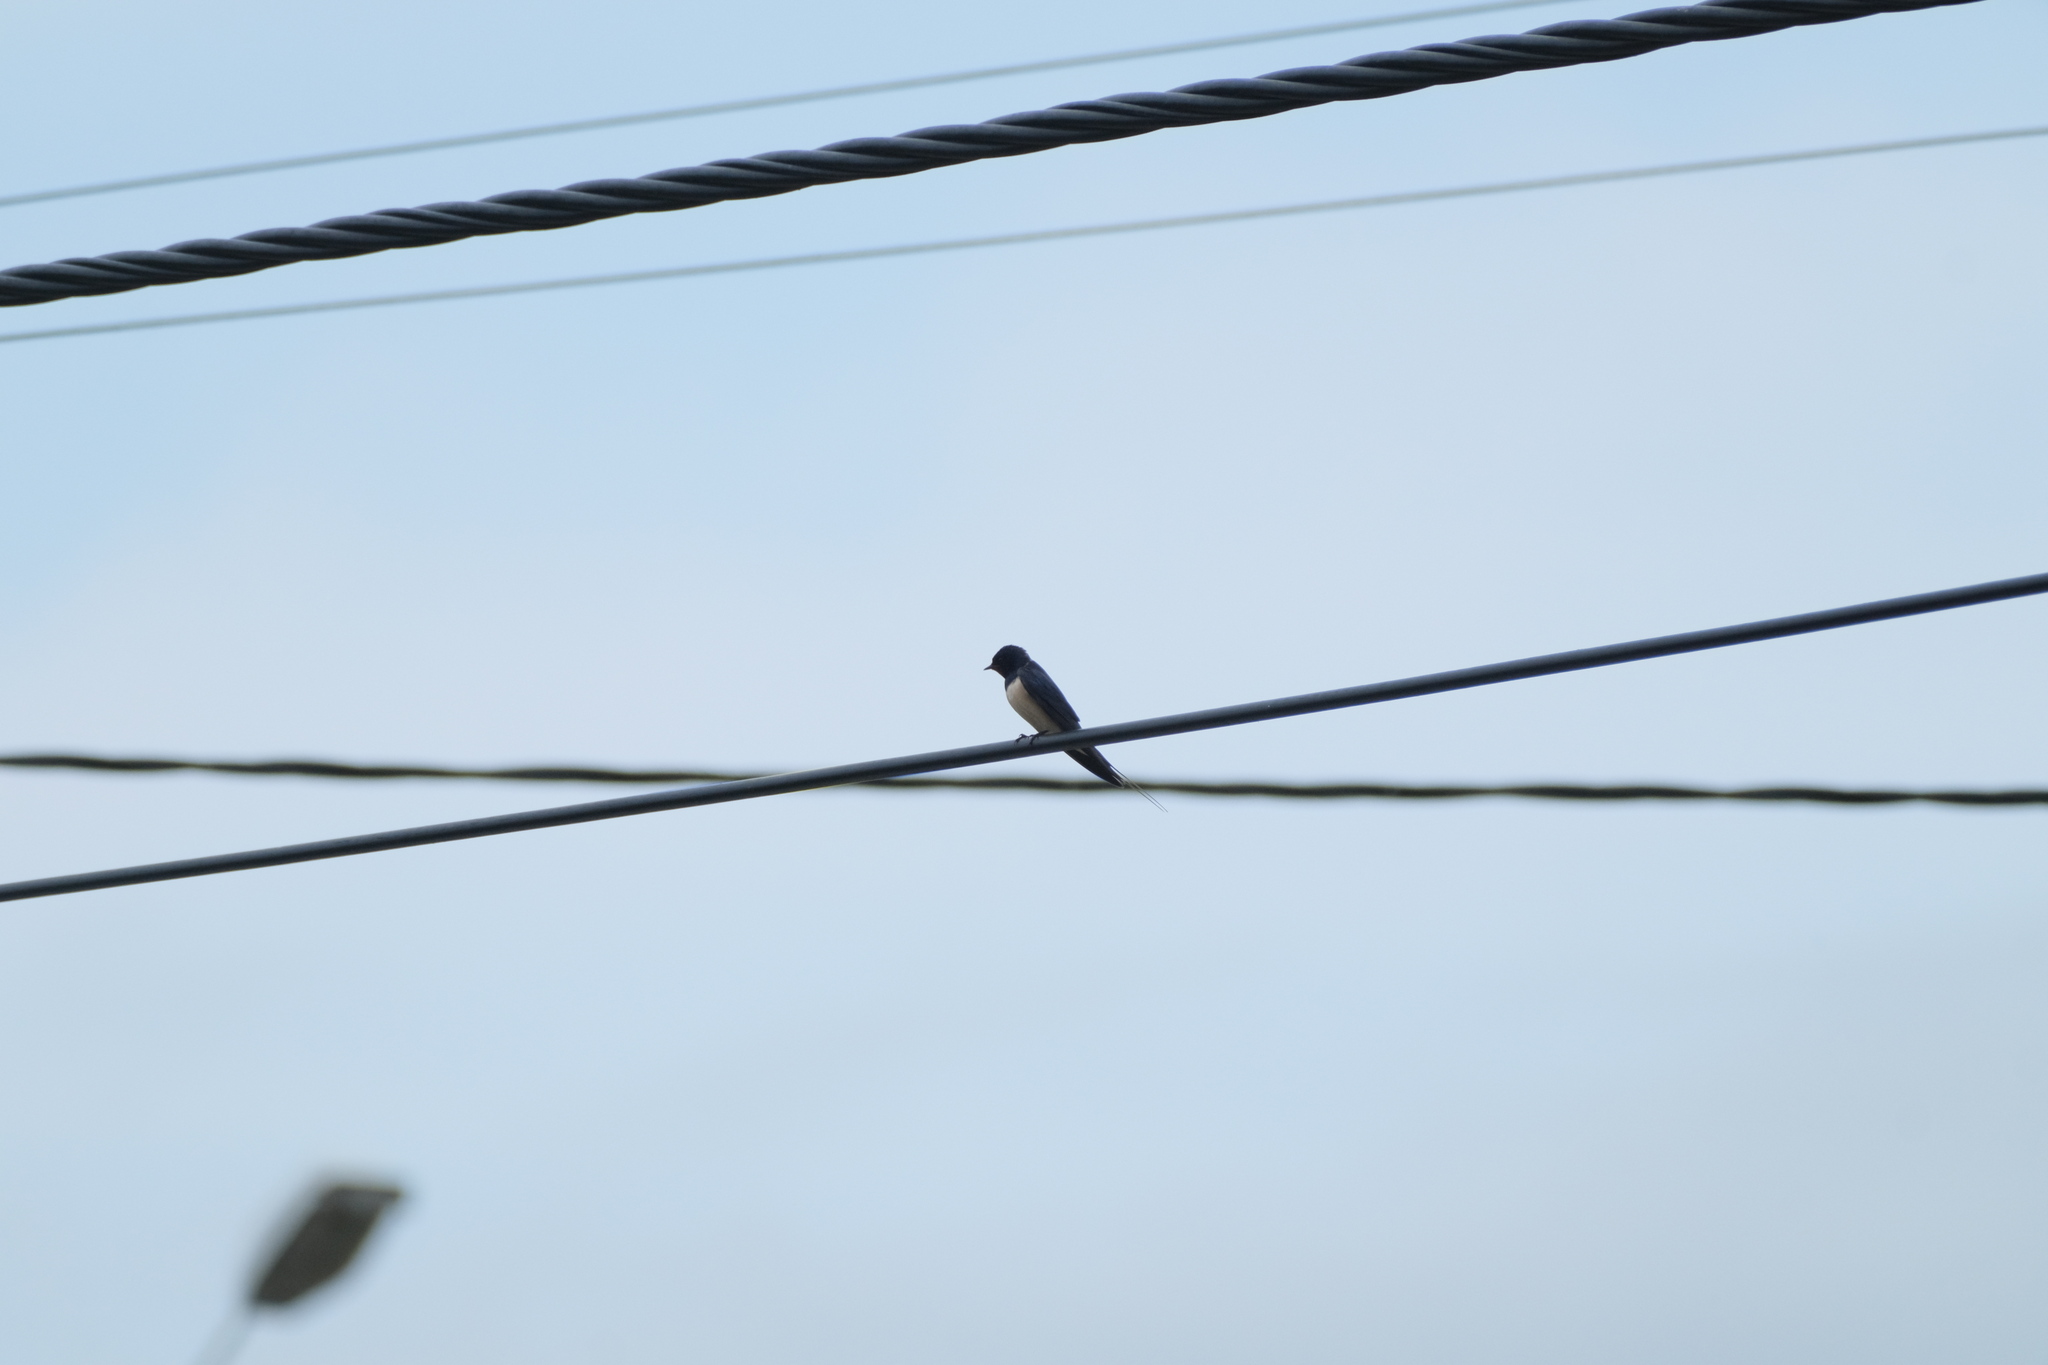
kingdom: Animalia
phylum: Chordata
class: Aves
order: Passeriformes
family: Hirundinidae
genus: Hirundo
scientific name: Hirundo rustica
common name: Barn swallow
